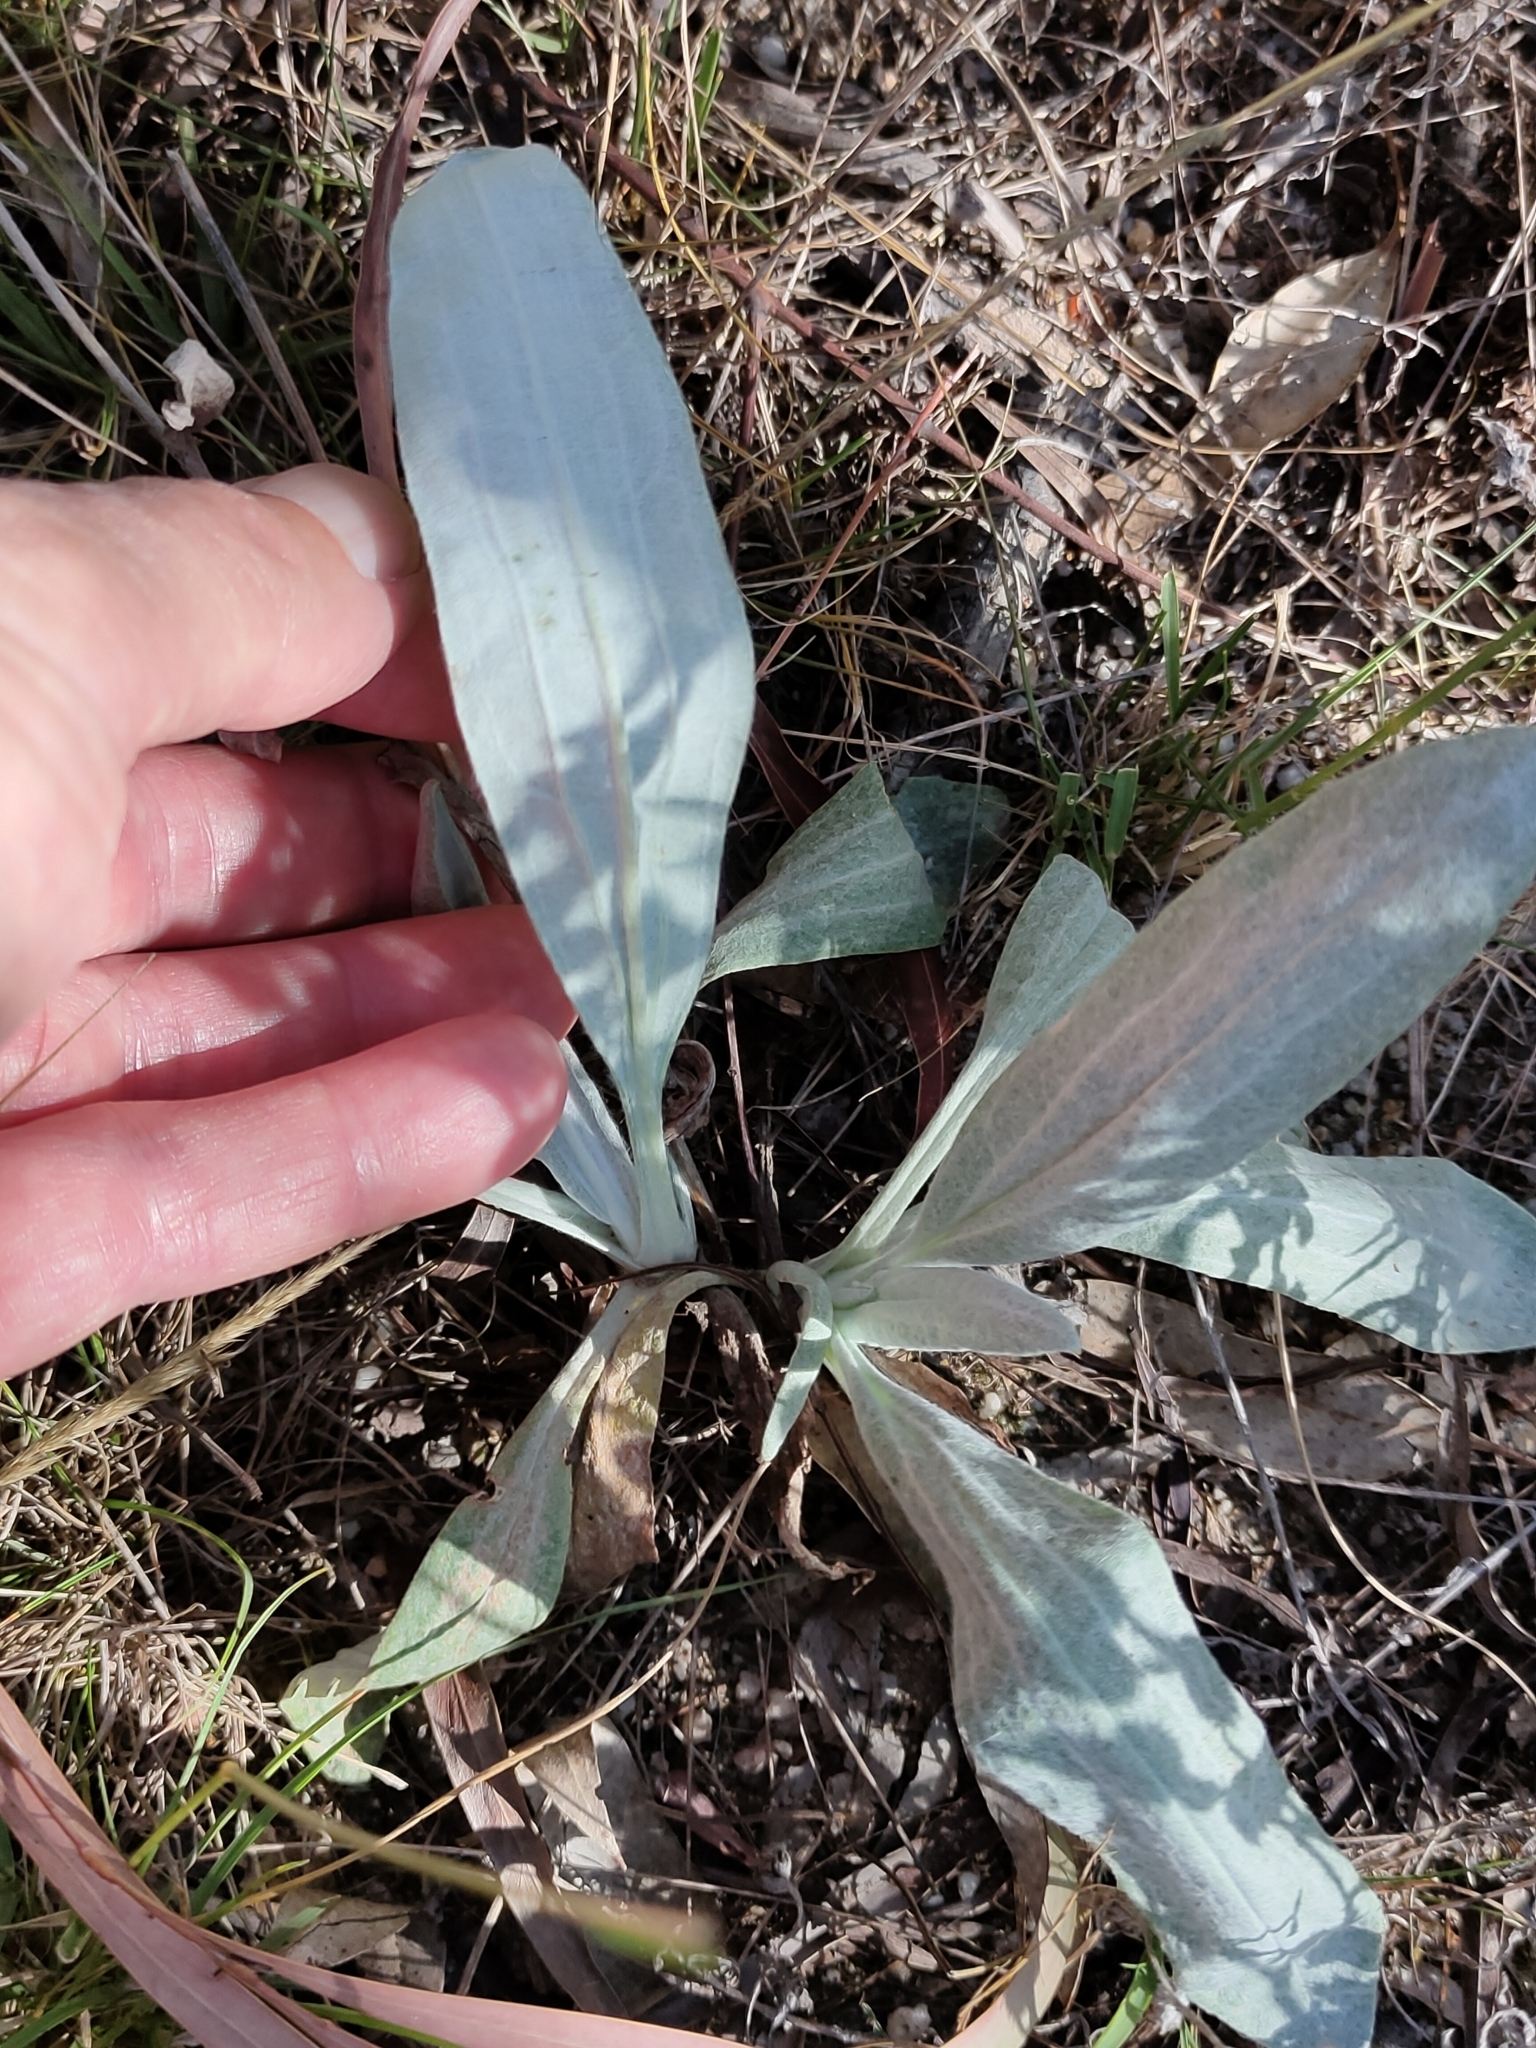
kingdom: Plantae
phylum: Tracheophyta
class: Magnoliopsida
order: Asterales
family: Asteraceae
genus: Podolepis
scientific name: Podolepis arachnoidea
